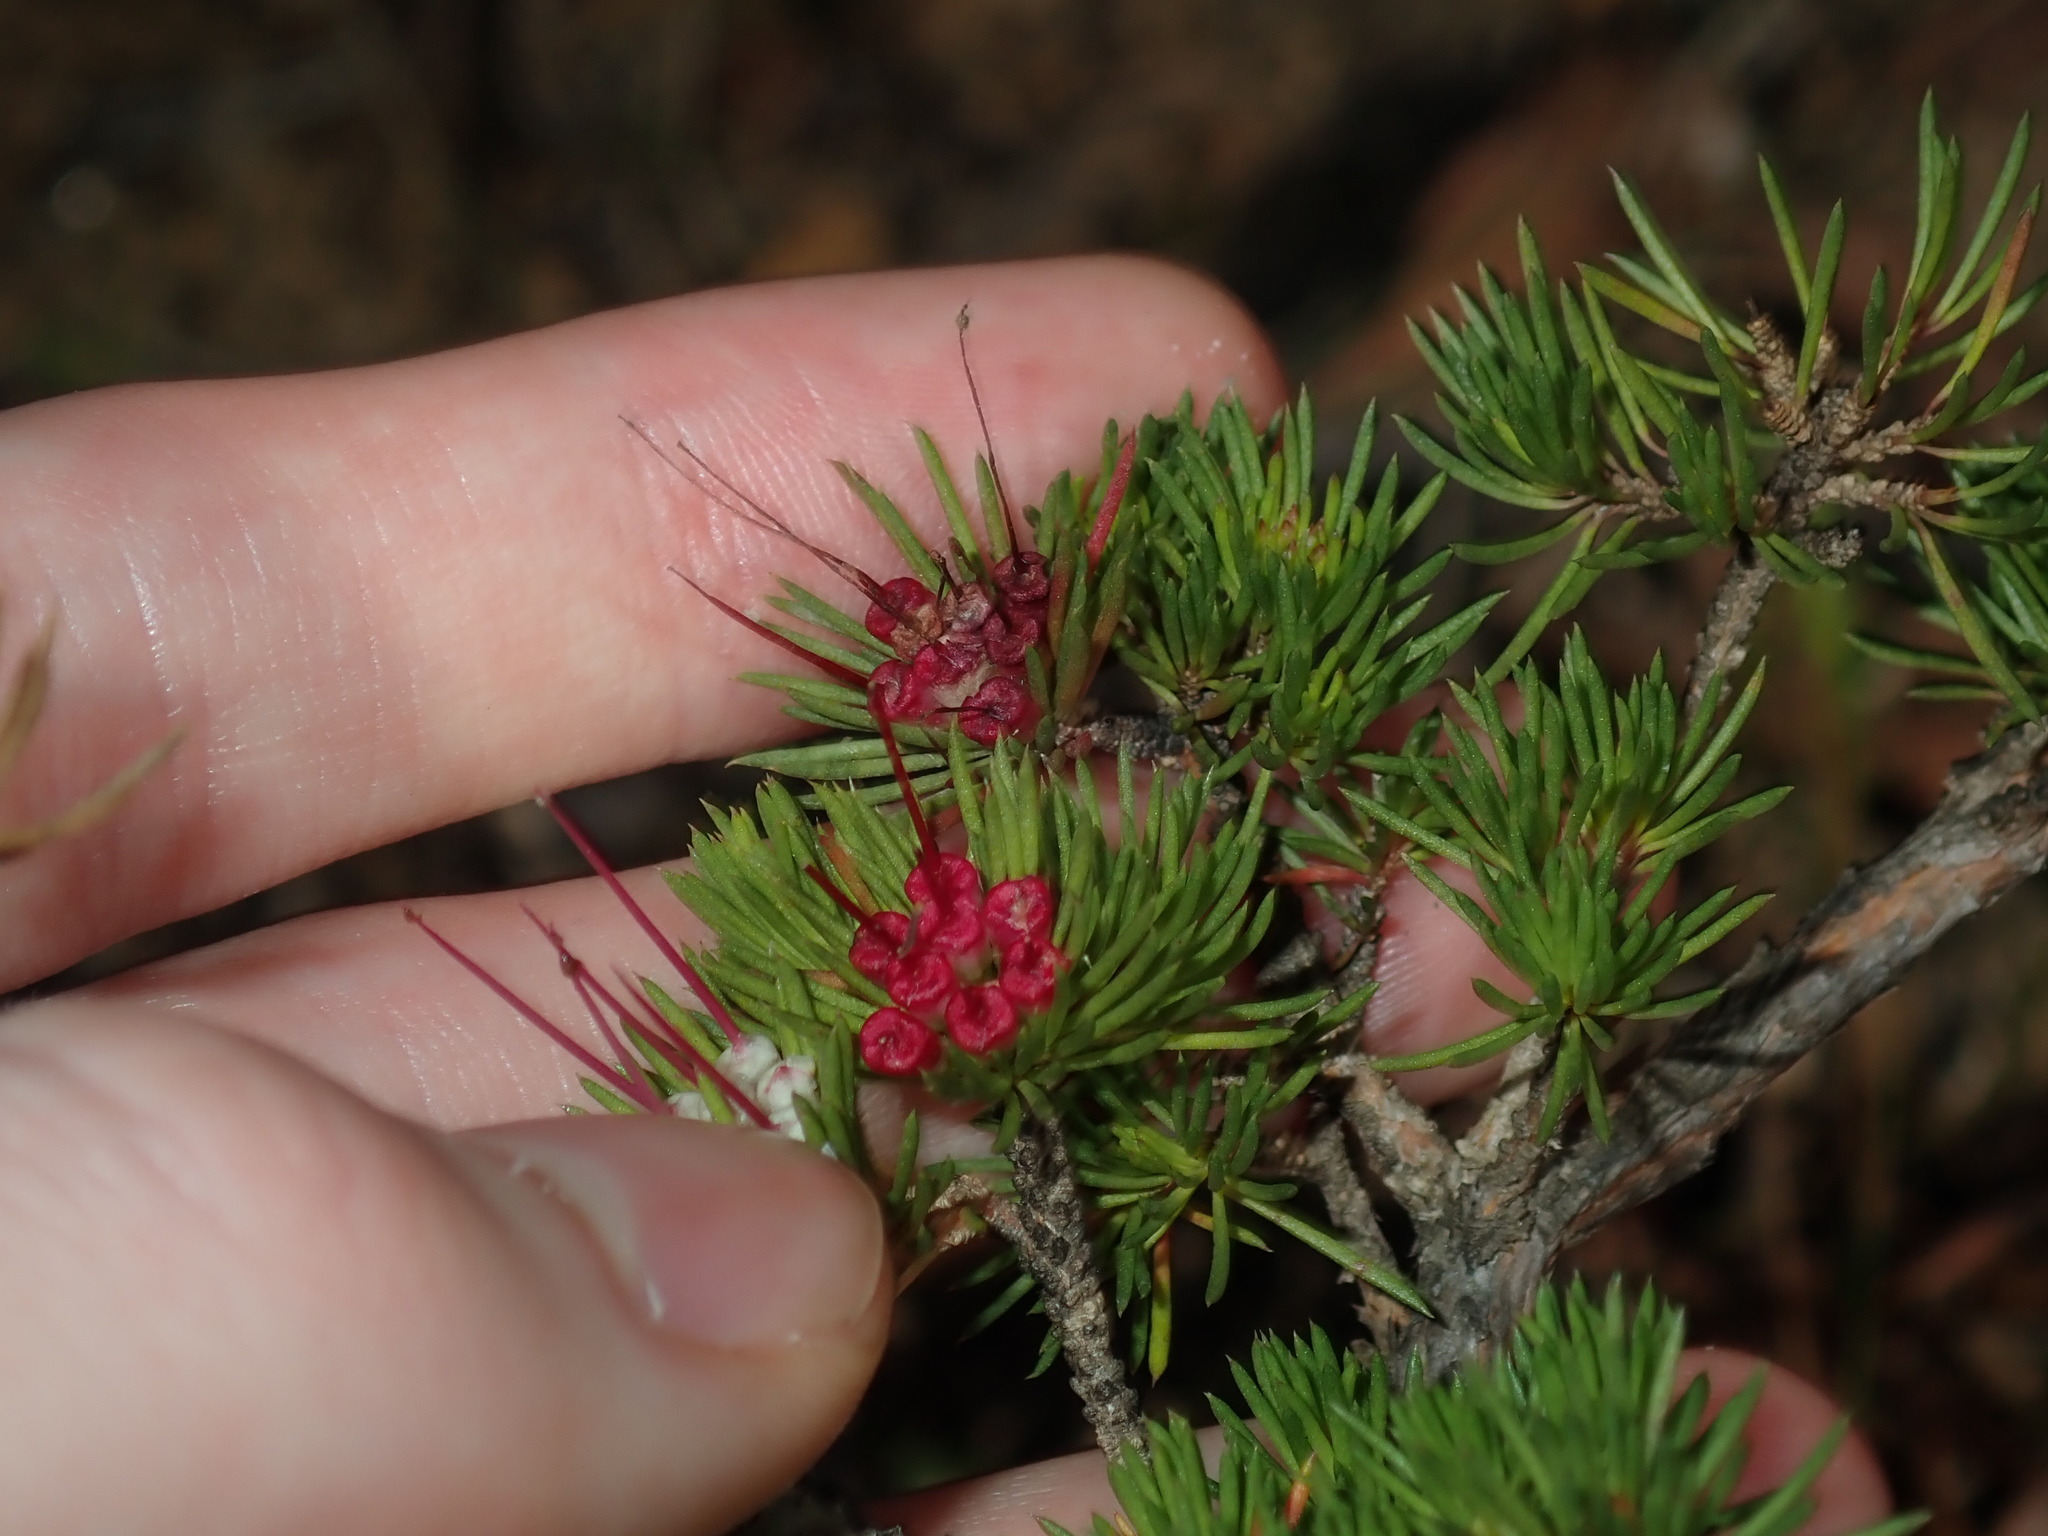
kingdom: Plantae
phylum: Tracheophyta
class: Magnoliopsida
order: Myrtales
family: Myrtaceae
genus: Darwinia
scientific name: Darwinia fascicularis
